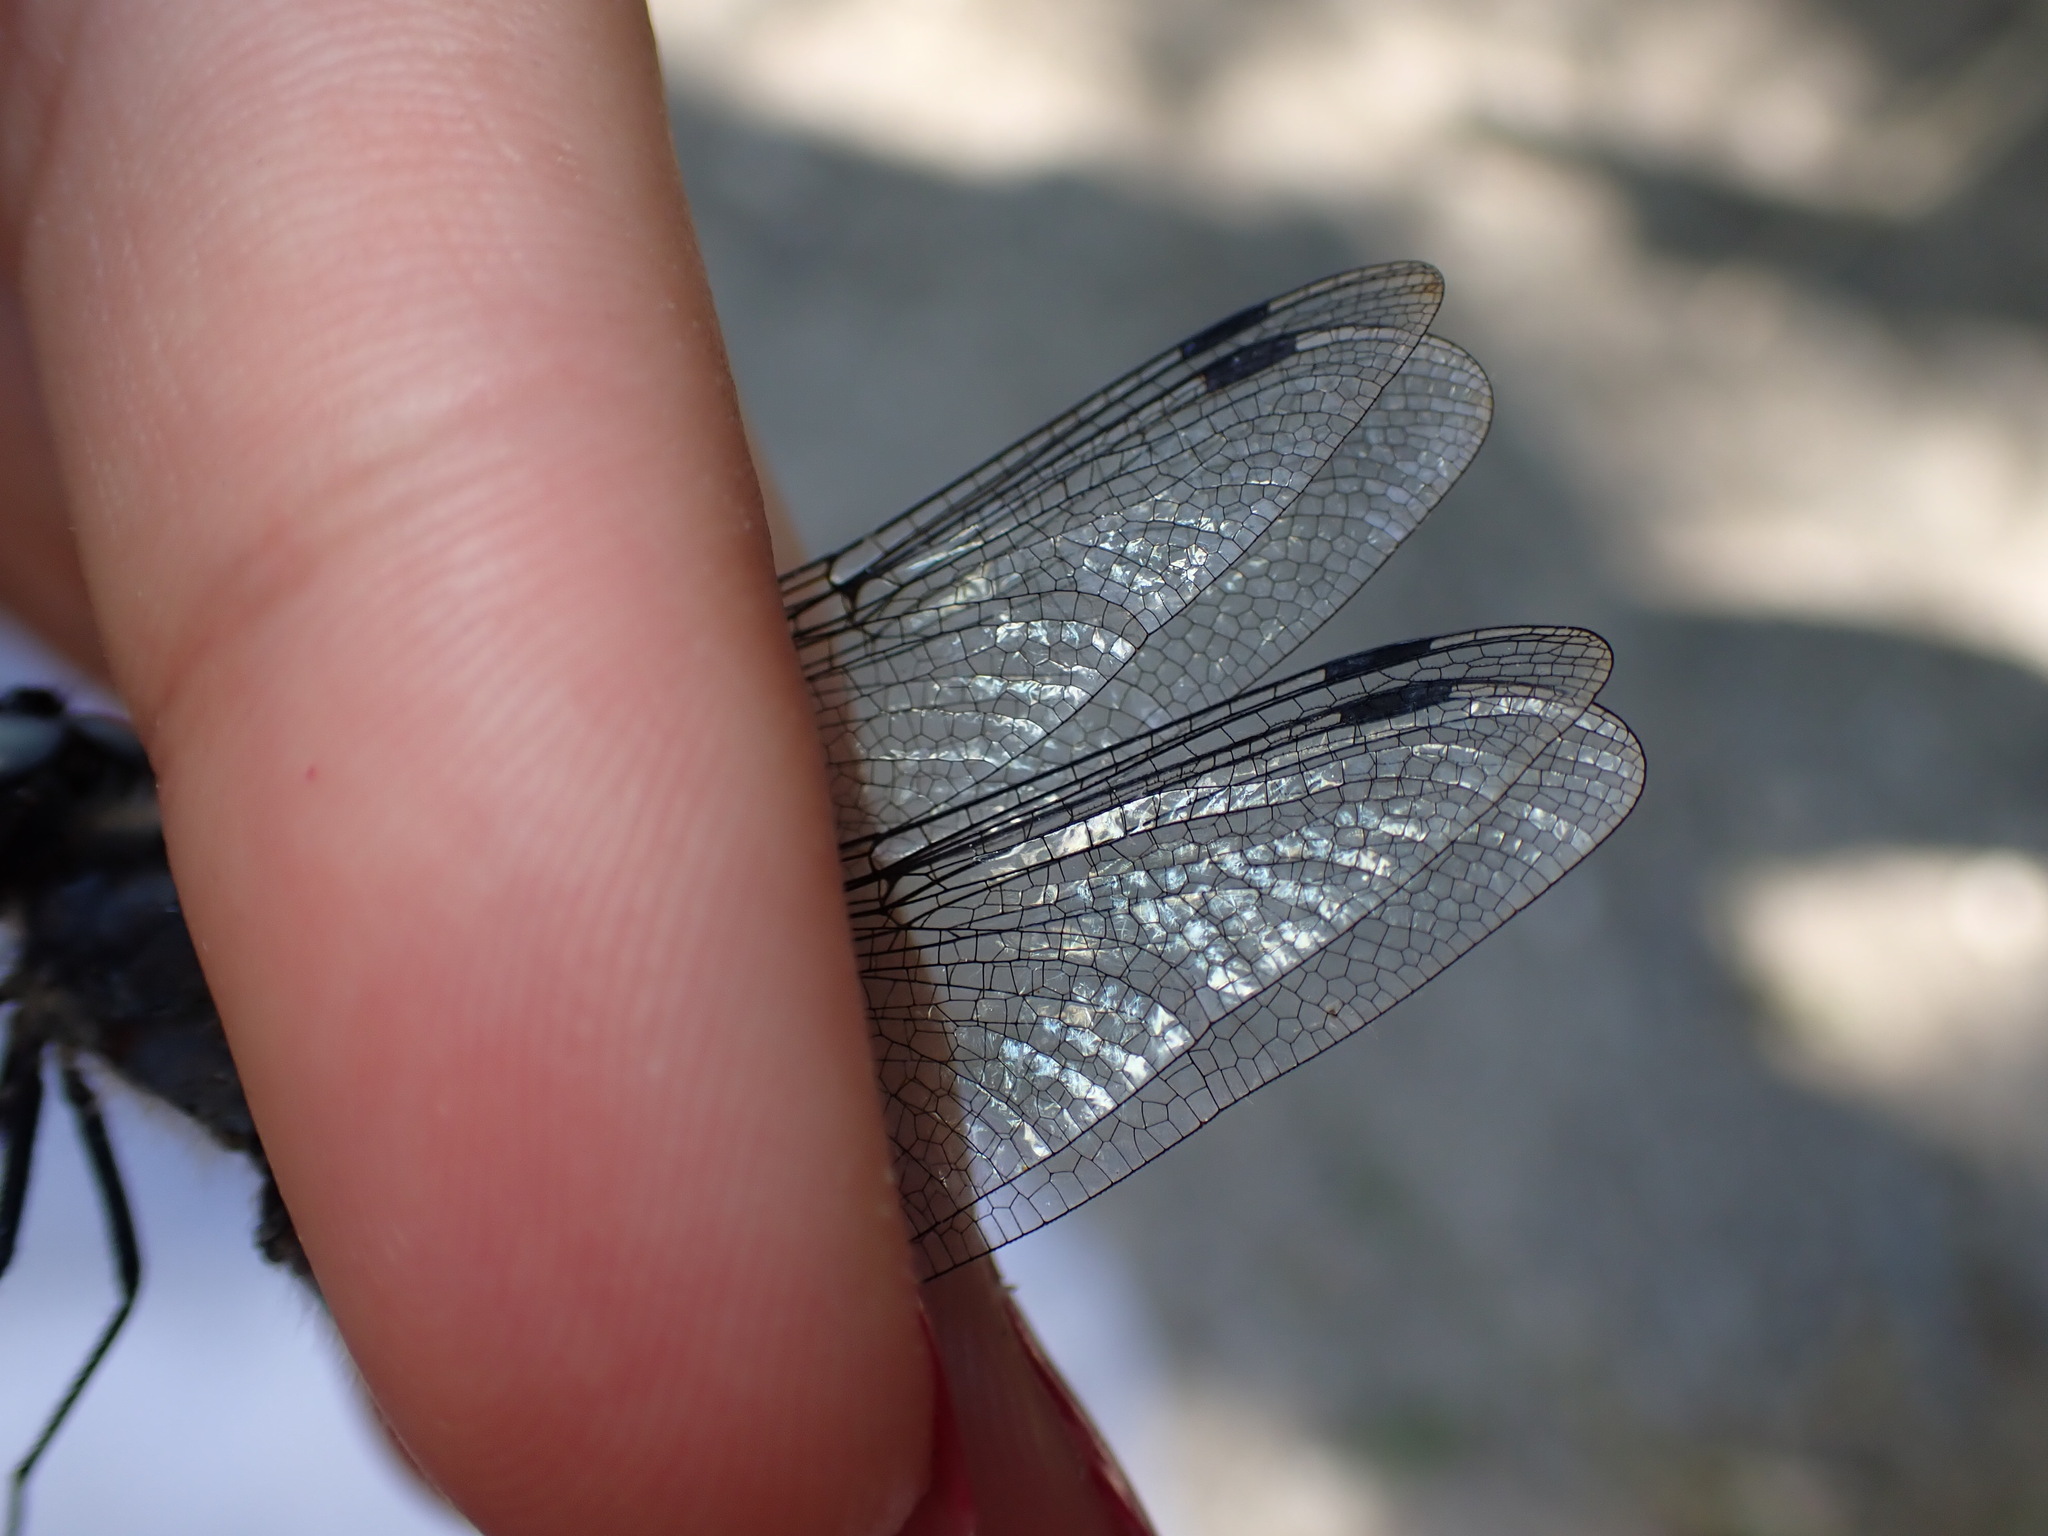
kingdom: Animalia
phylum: Arthropoda
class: Insecta
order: Odonata
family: Libellulidae
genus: Libellula
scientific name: Libellula fulva
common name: Blue chaser
